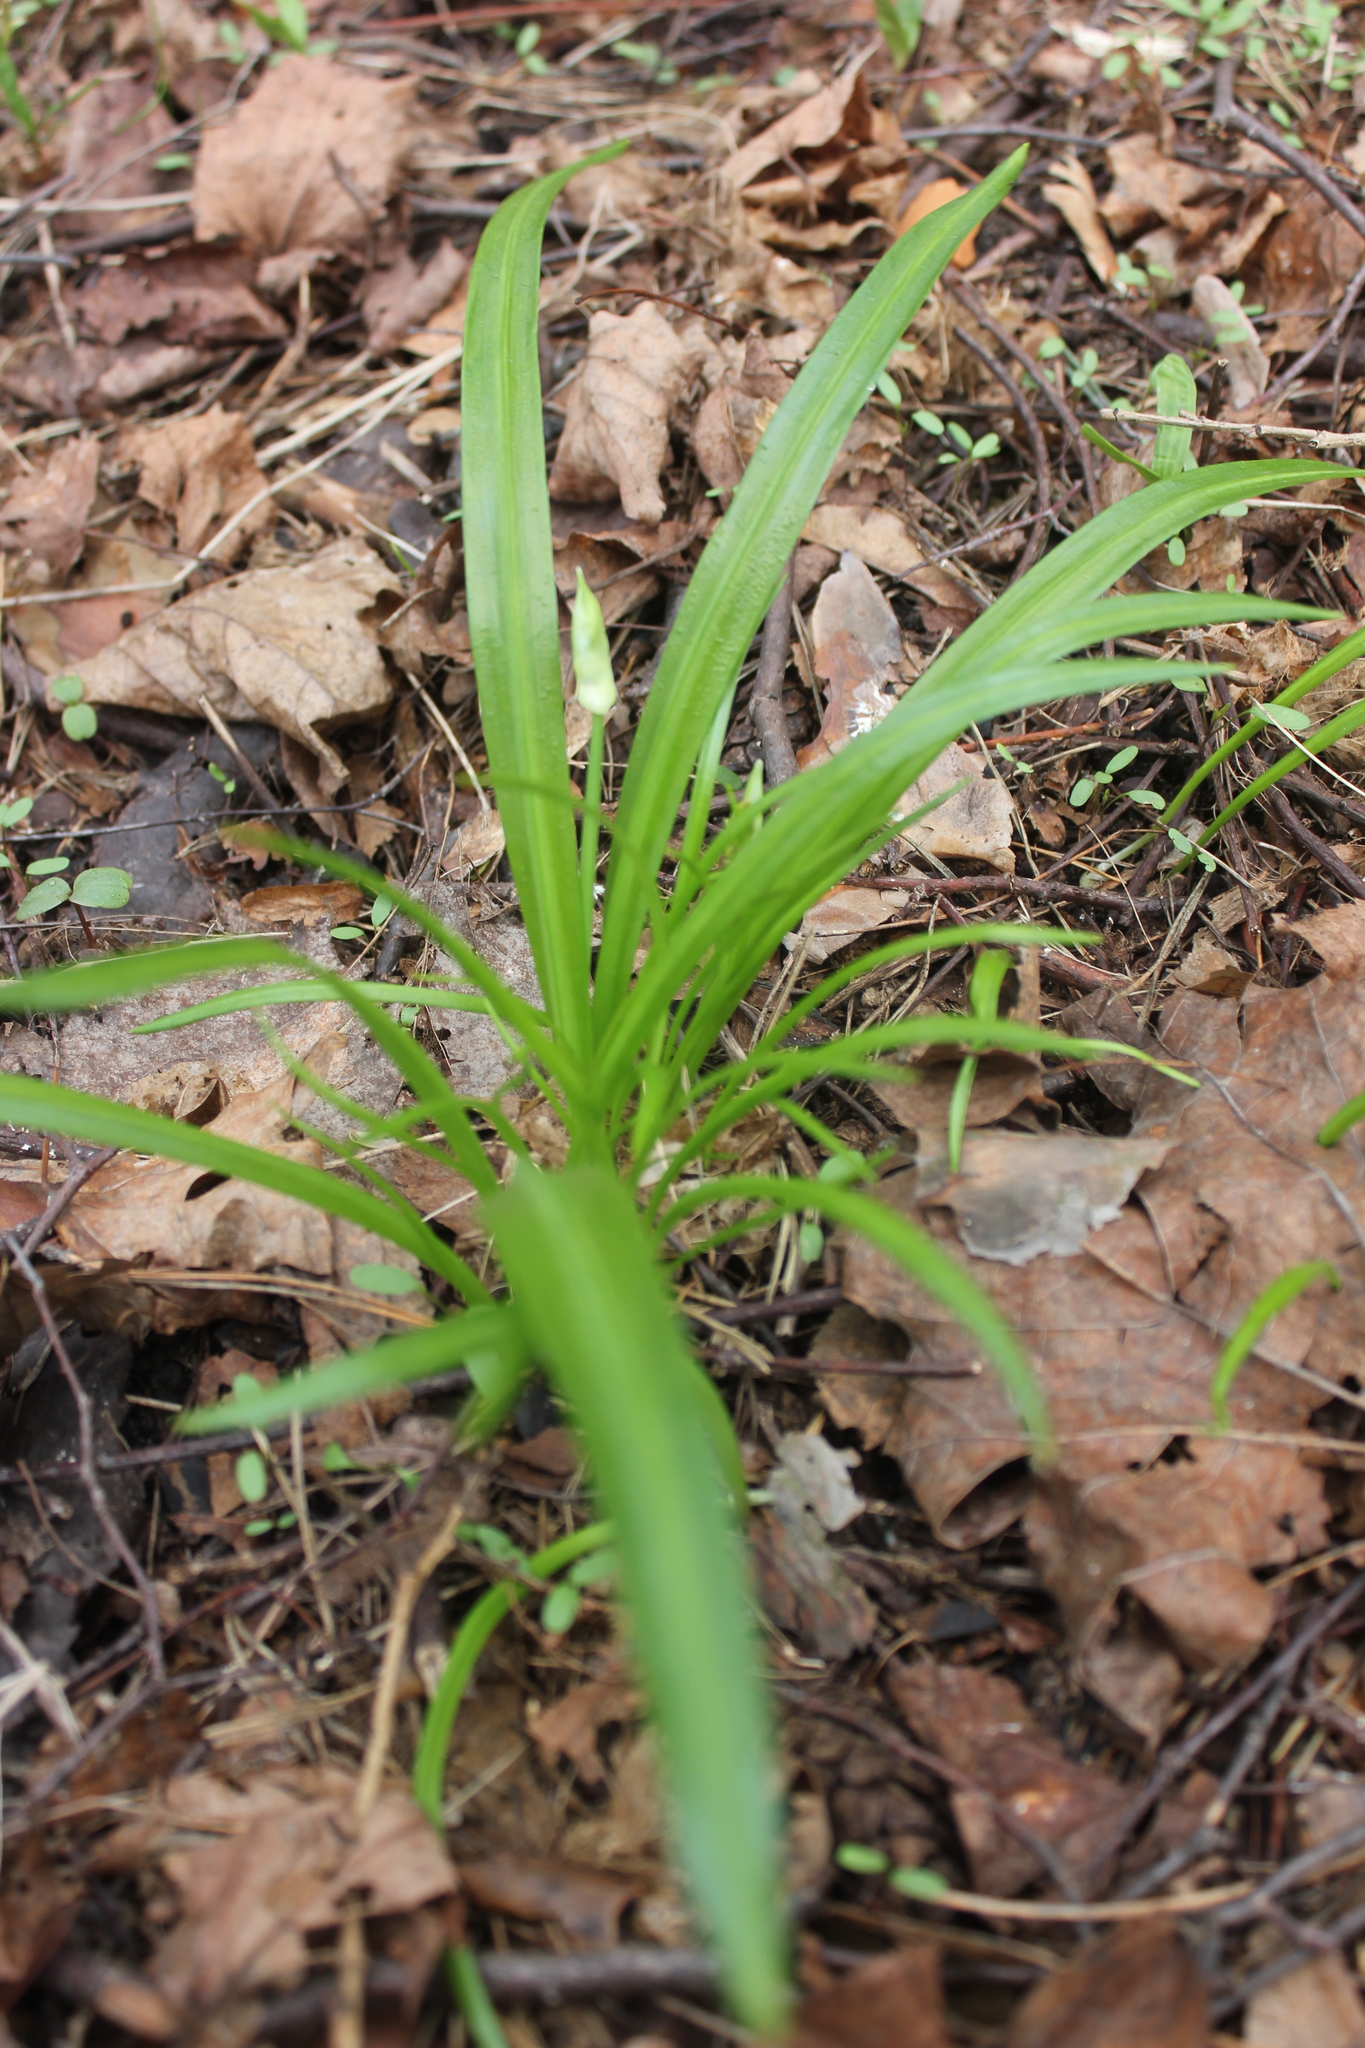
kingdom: Plantae
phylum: Tracheophyta
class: Liliopsida
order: Asparagales
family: Amaryllidaceae
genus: Allium
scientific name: Allium paradoxum
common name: Few-flowered garlic
